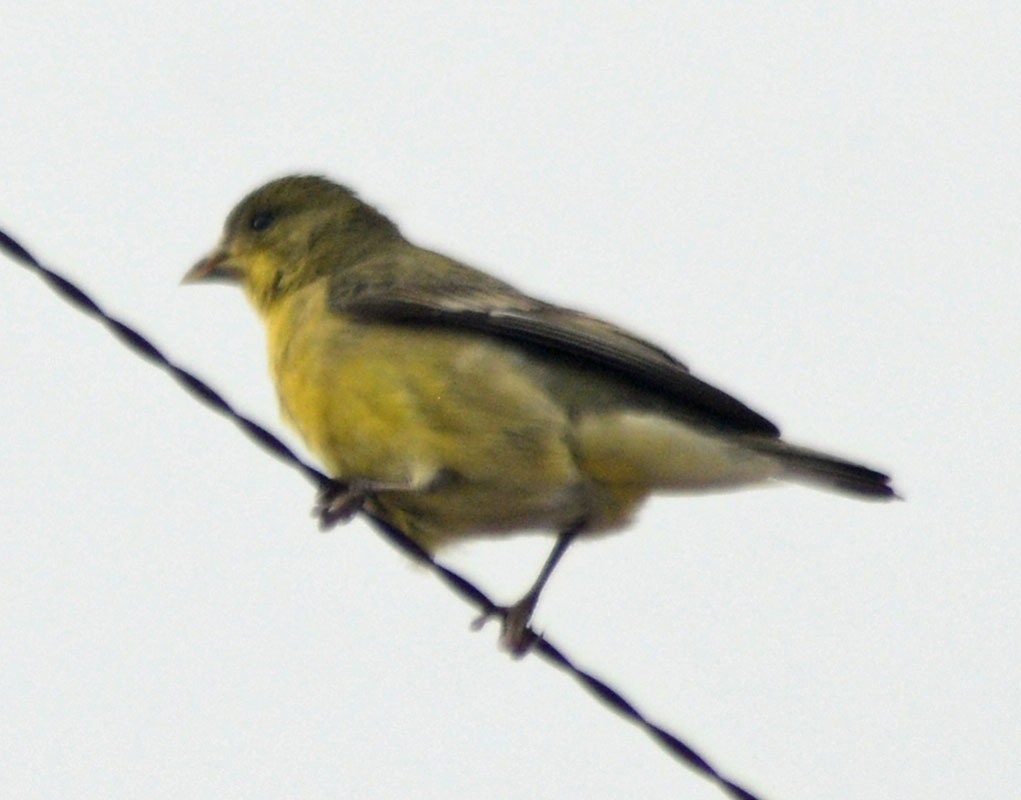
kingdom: Animalia
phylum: Chordata
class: Aves
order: Passeriformes
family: Fringillidae
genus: Spinus
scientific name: Spinus psaltria
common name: Lesser goldfinch
